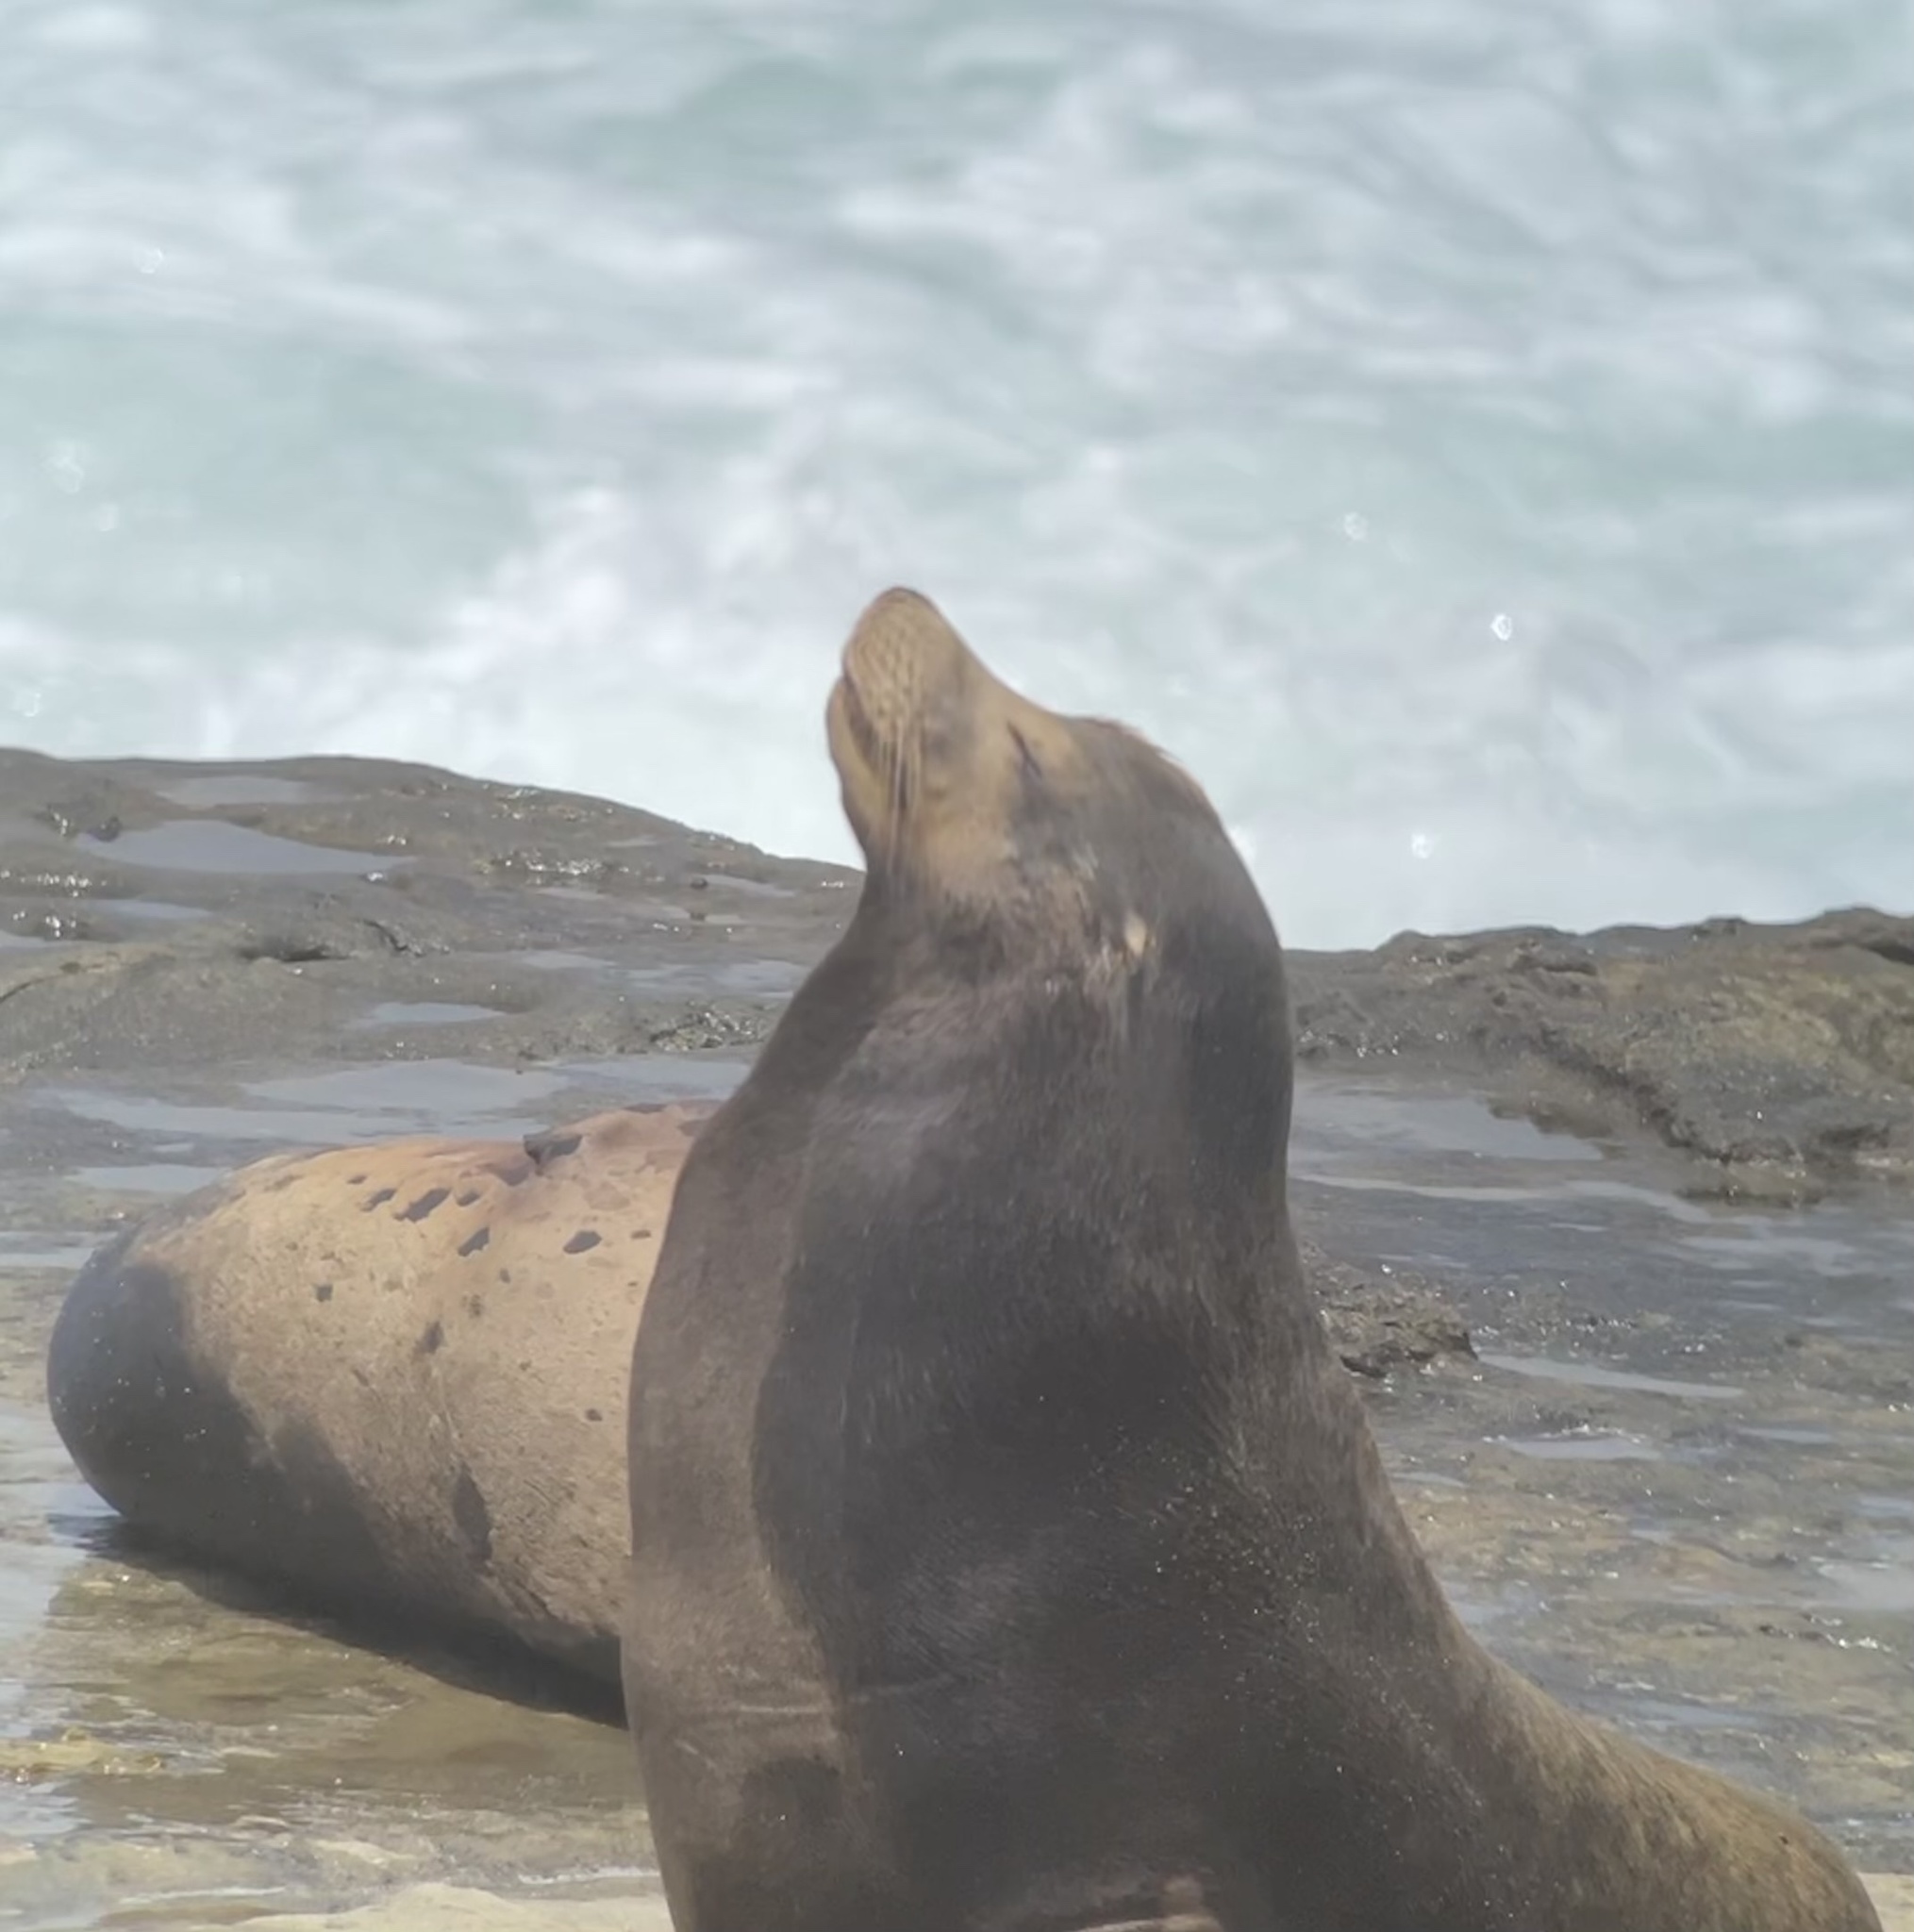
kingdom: Animalia
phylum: Chordata
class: Mammalia
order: Carnivora
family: Otariidae
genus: Zalophus
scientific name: Zalophus californianus
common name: California sea lion
